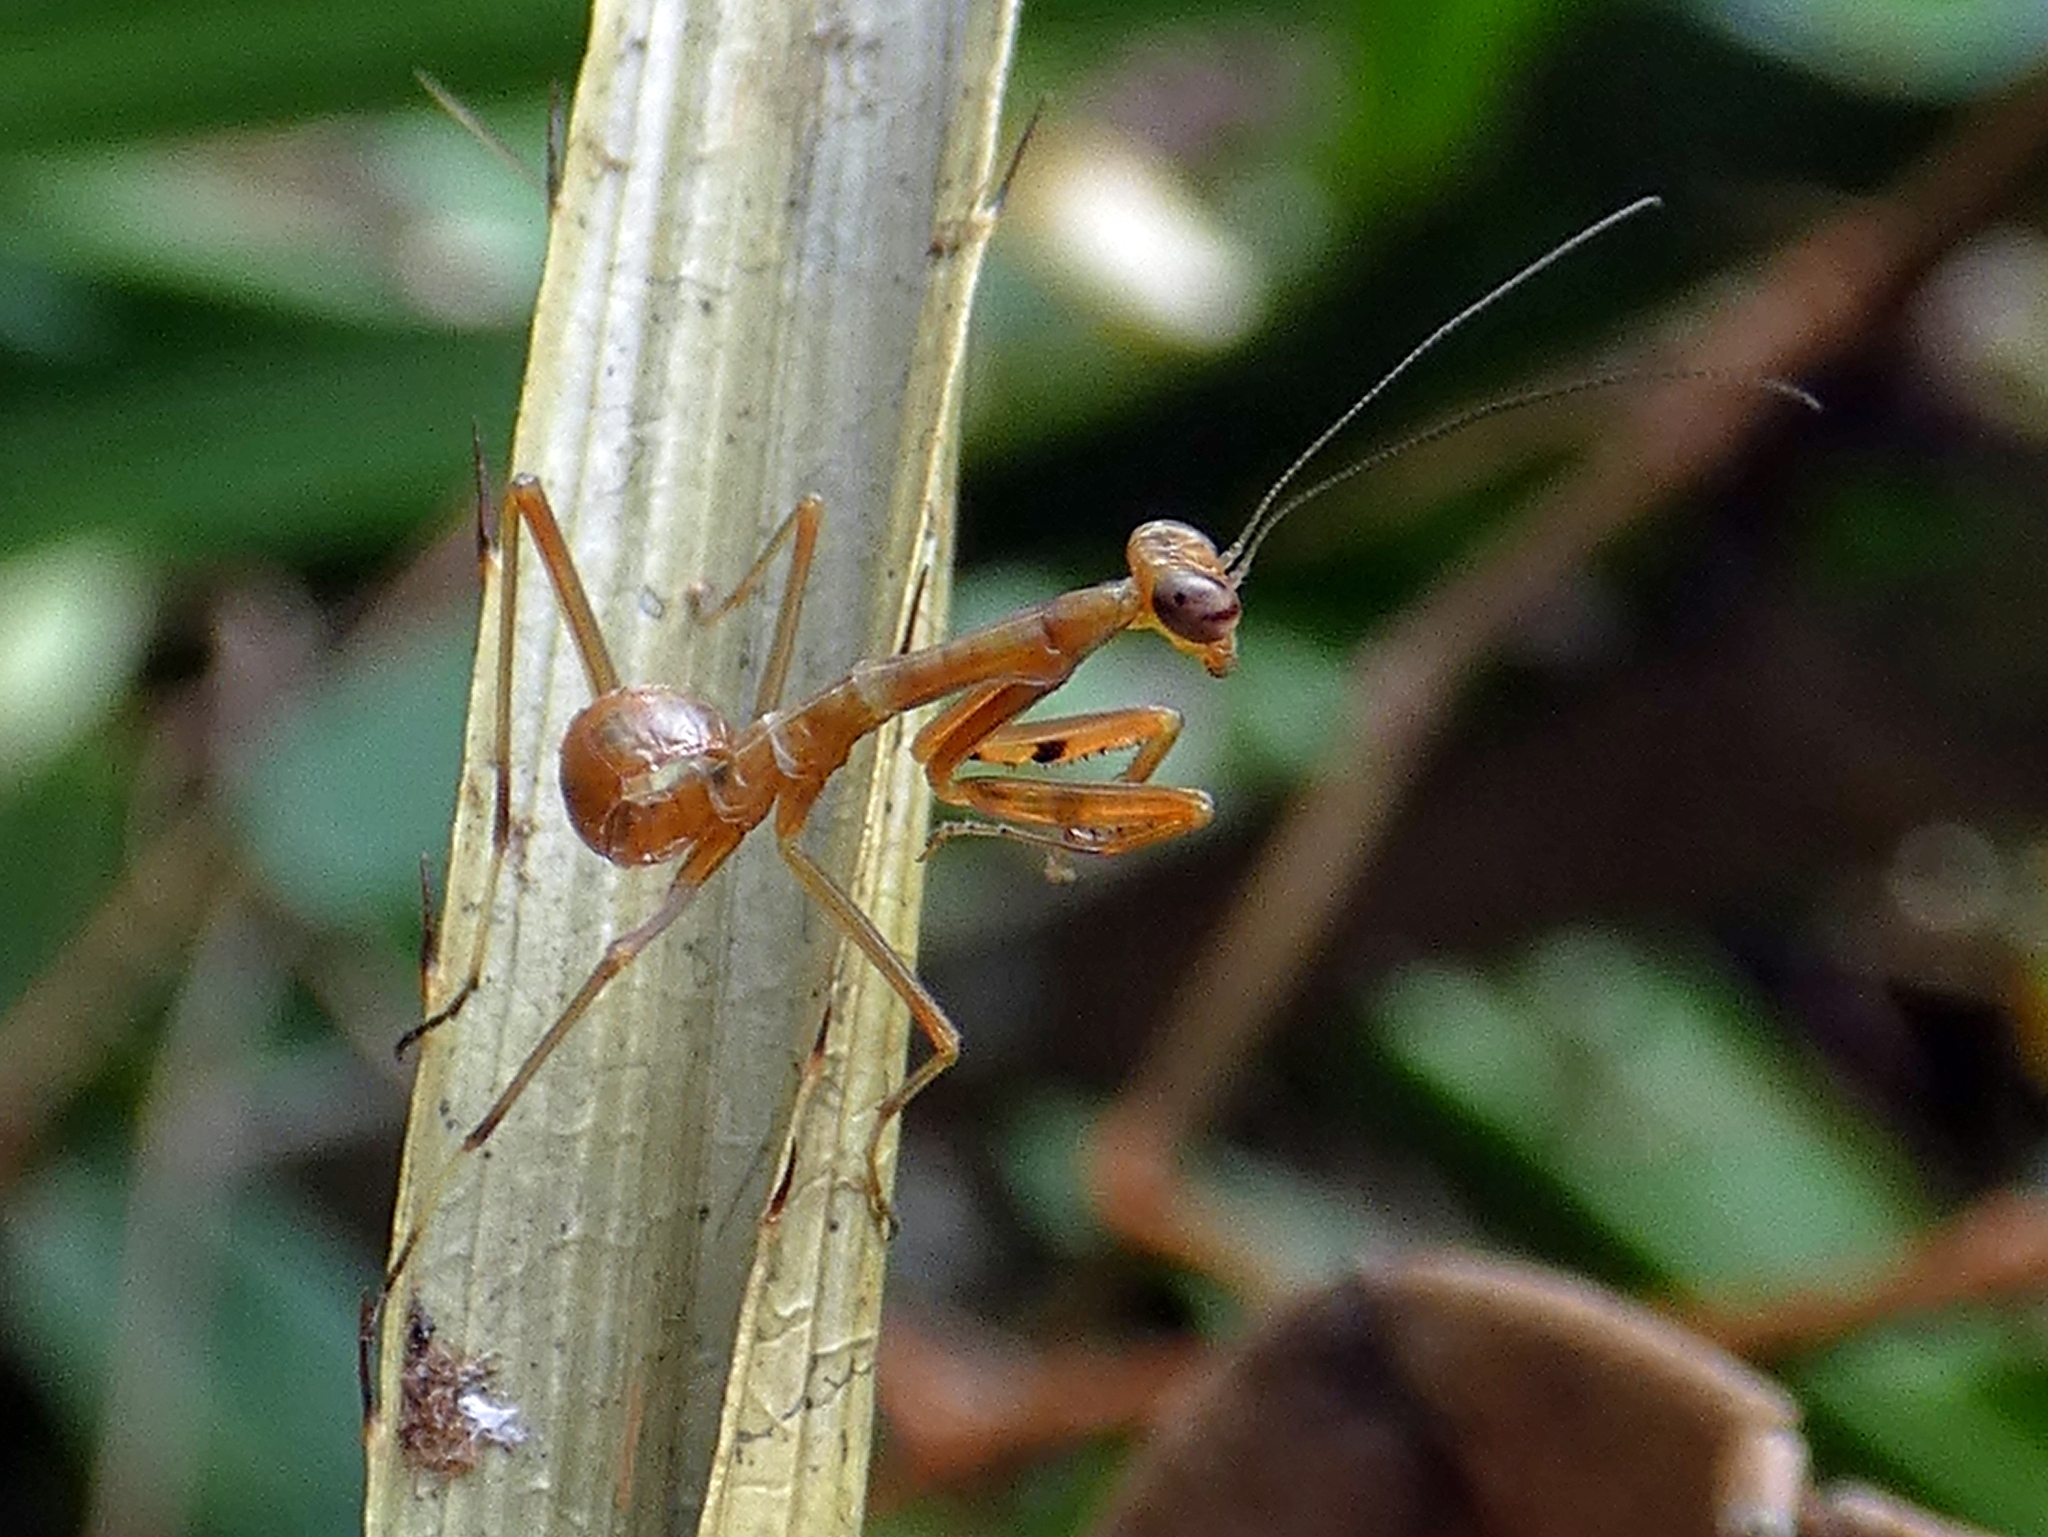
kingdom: Animalia
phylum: Arthropoda
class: Insecta
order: Mantodea
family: Mantidae
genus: Hierodula
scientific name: Hierodula majuscula
